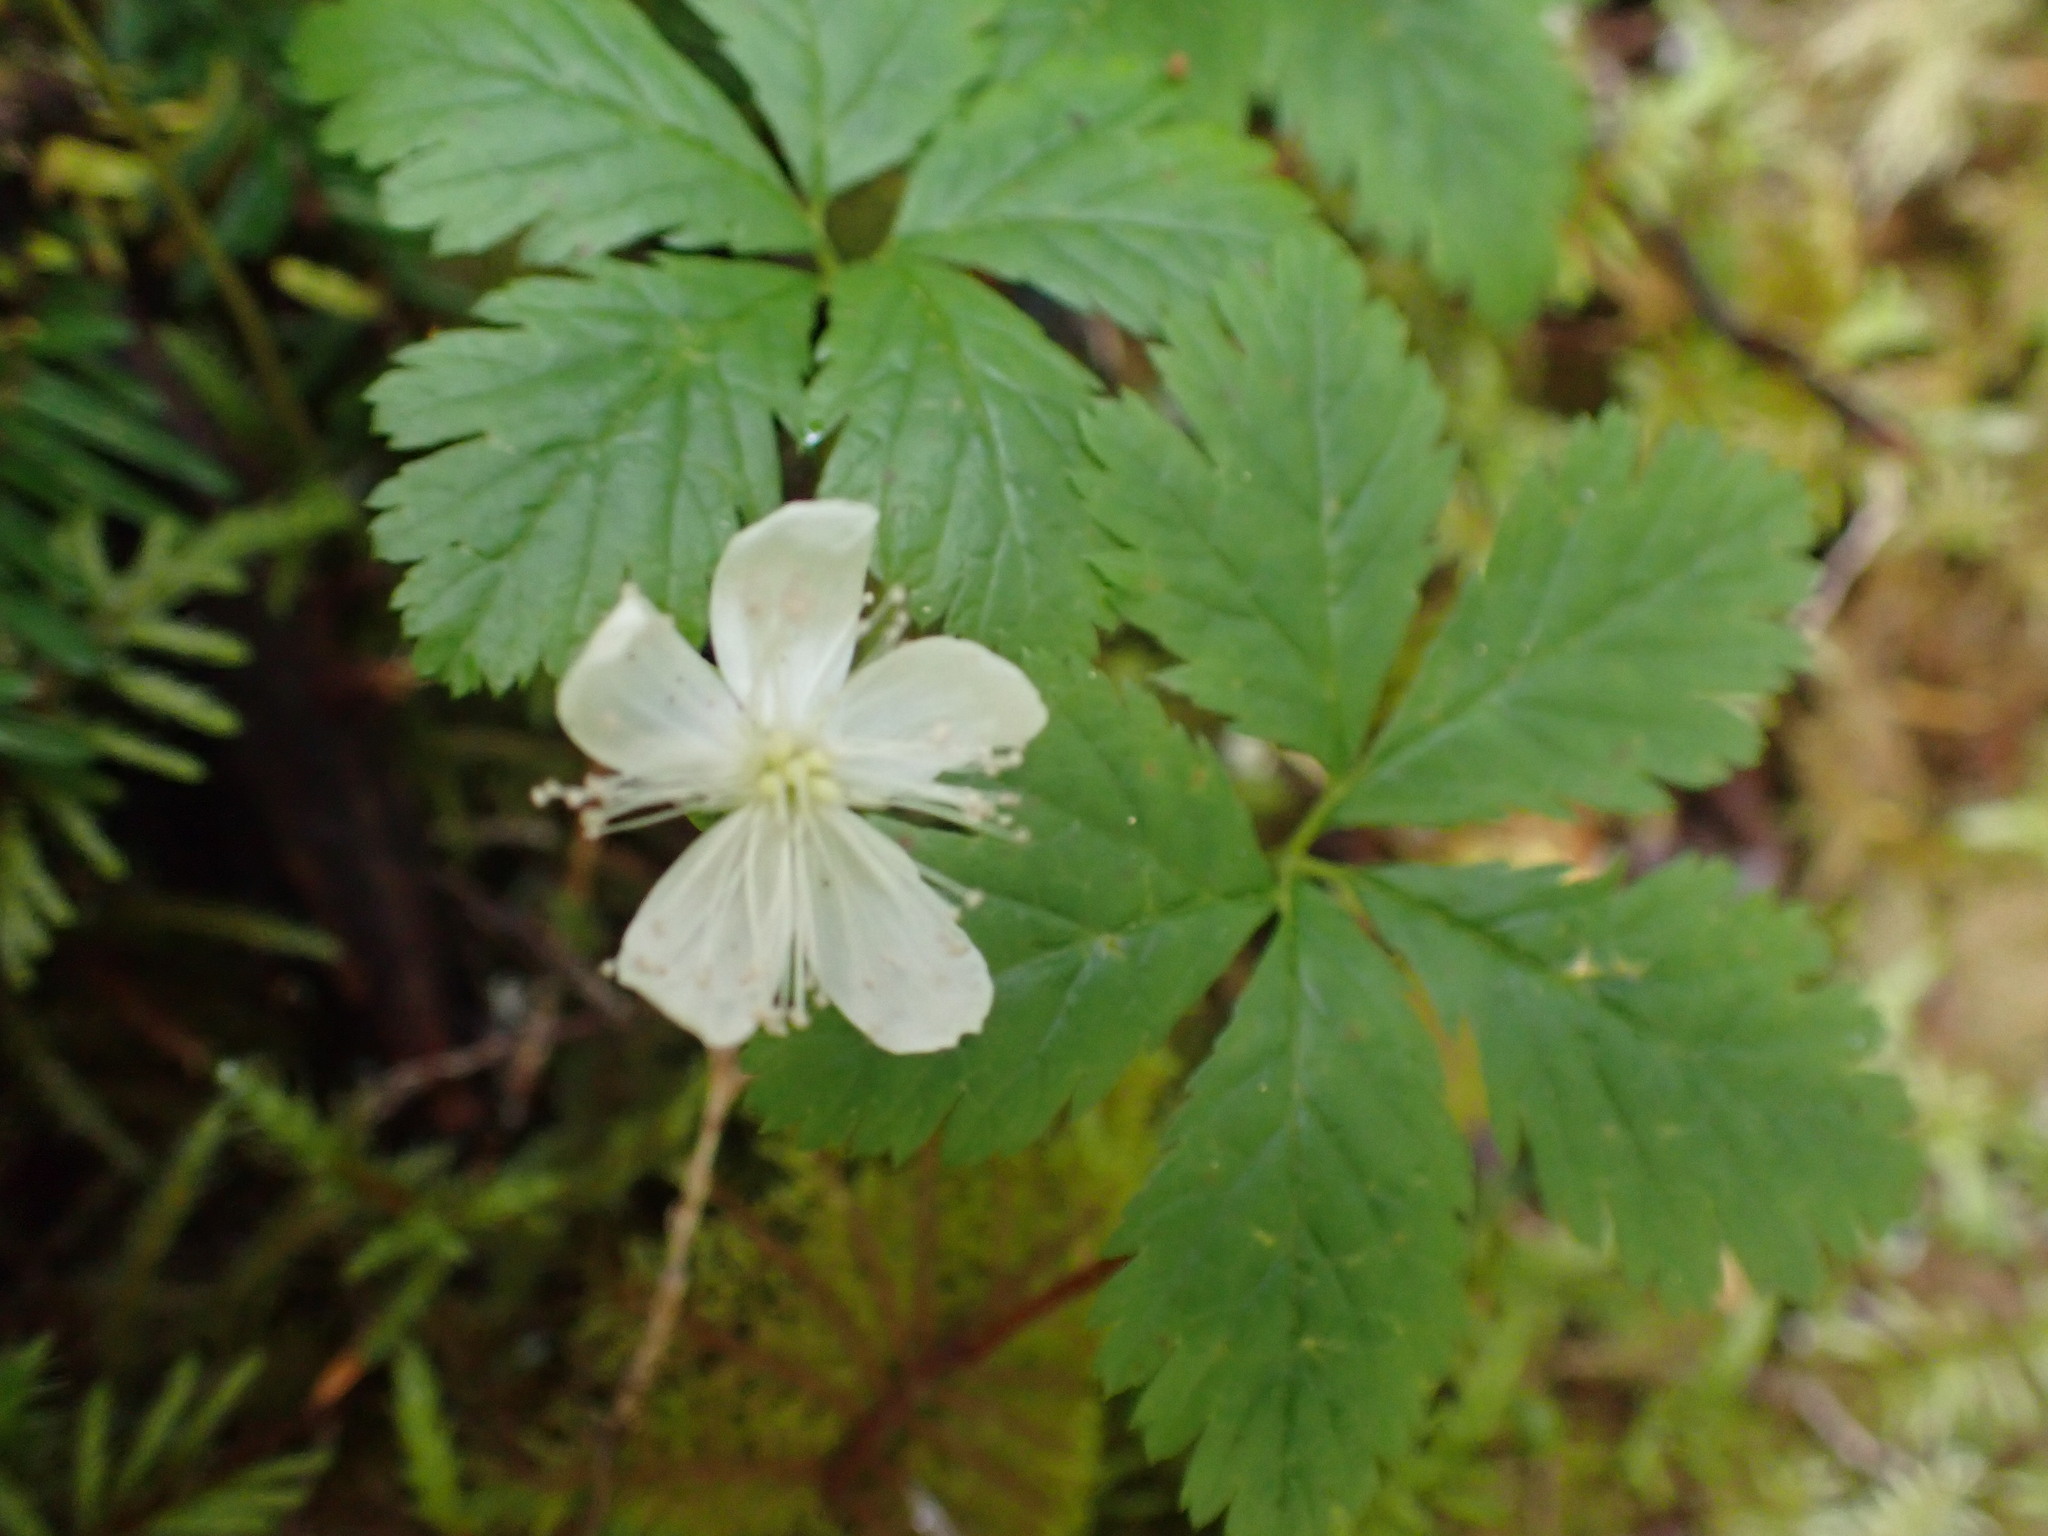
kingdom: Plantae
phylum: Tracheophyta
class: Magnoliopsida
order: Rosales
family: Rosaceae
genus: Rubus
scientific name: Rubus pedatus
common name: Creeping raspberry
